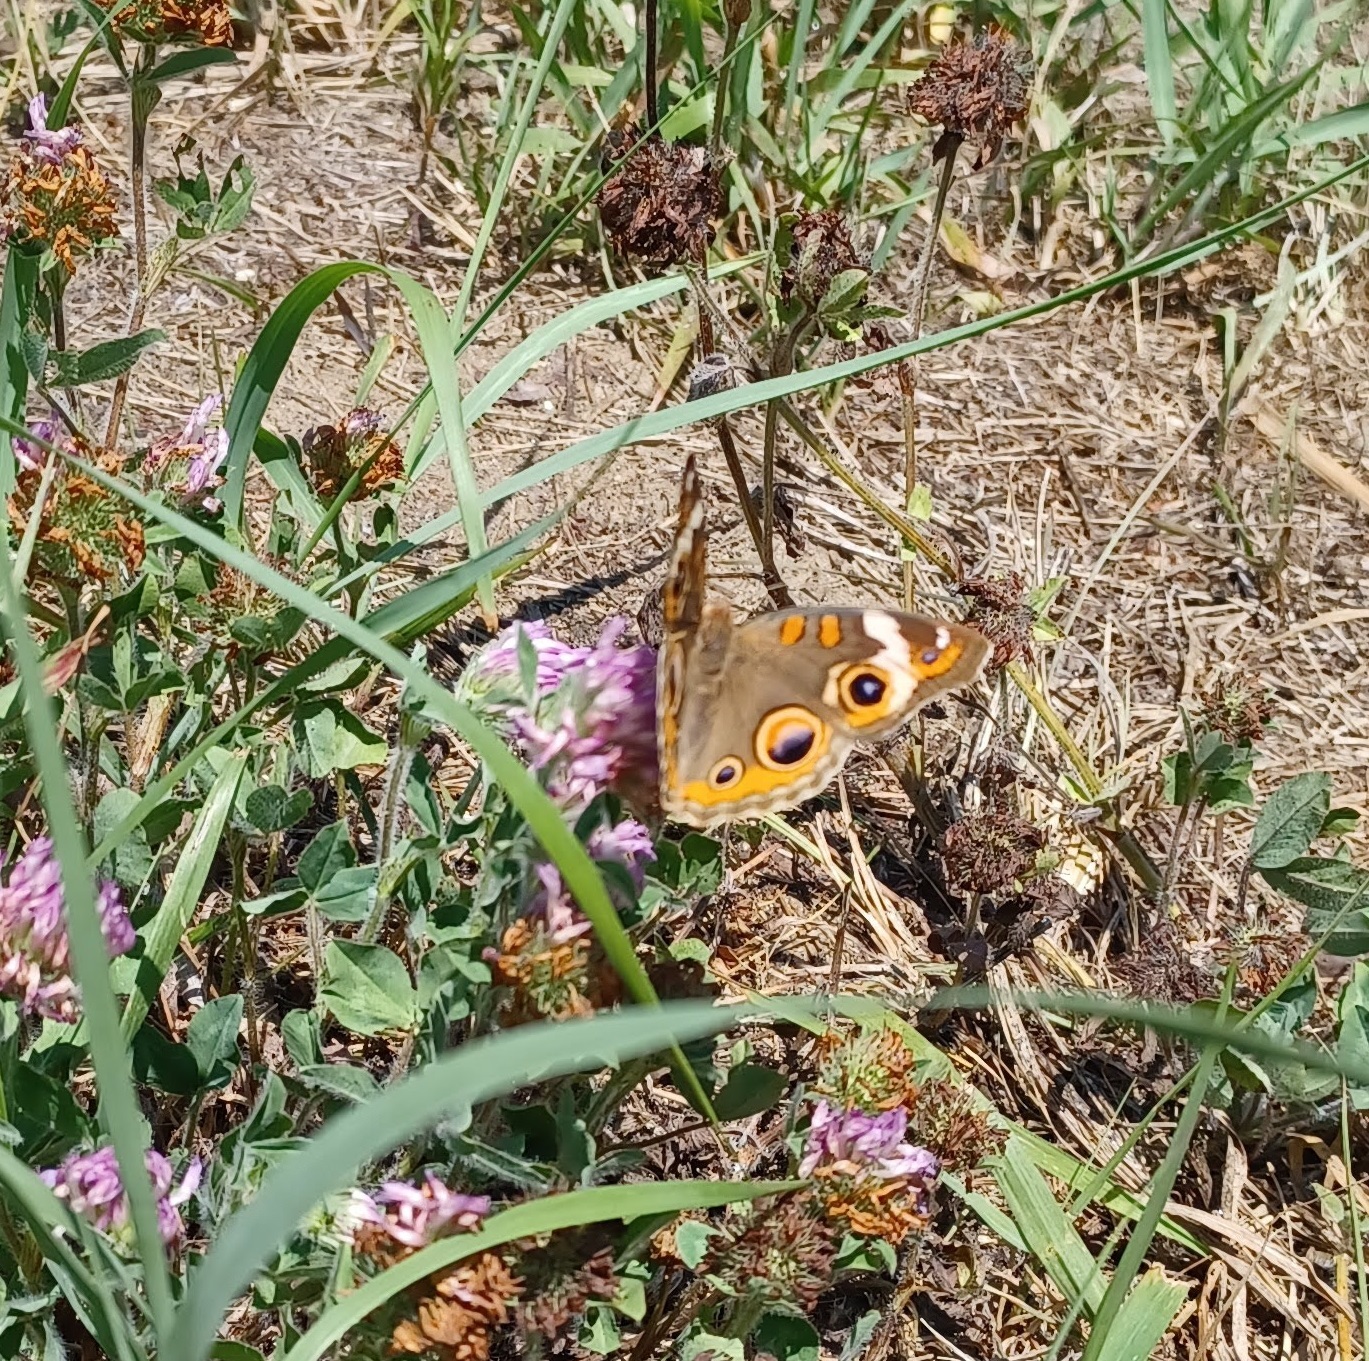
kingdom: Animalia
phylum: Arthropoda
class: Insecta
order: Lepidoptera
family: Nymphalidae
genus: Junonia
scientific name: Junonia coenia
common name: Common buckeye
